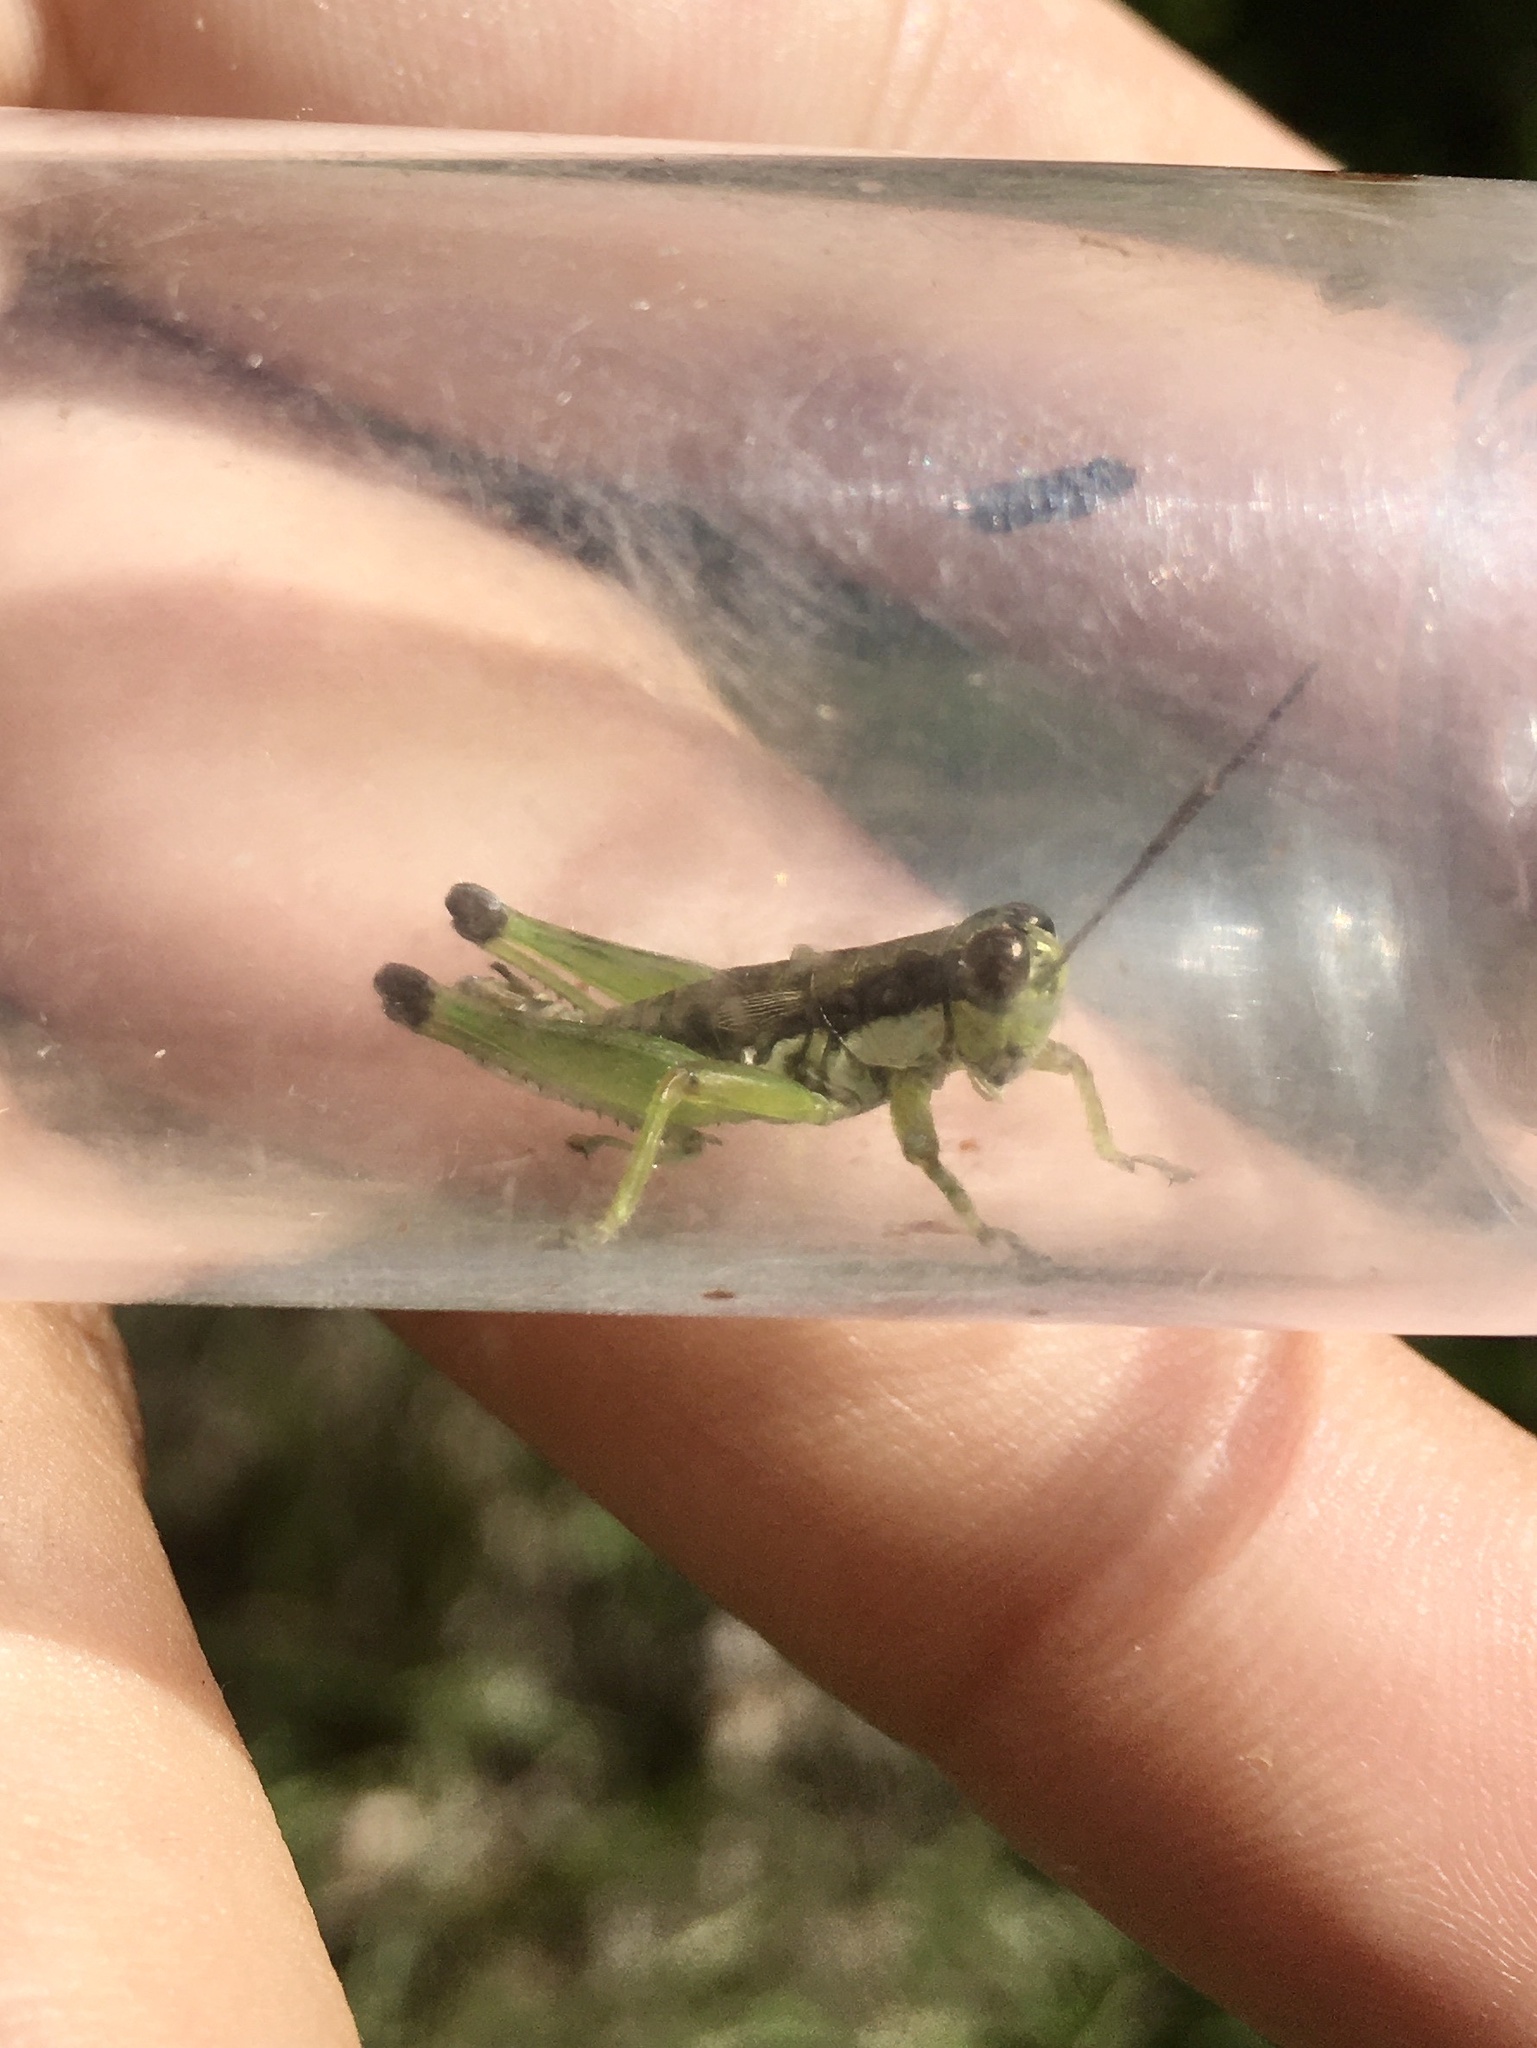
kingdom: Animalia
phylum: Arthropoda
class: Insecta
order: Orthoptera
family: Acrididae
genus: Melanoplus
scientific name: Melanoplus gracilis
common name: Graceful narrow-winged locust
